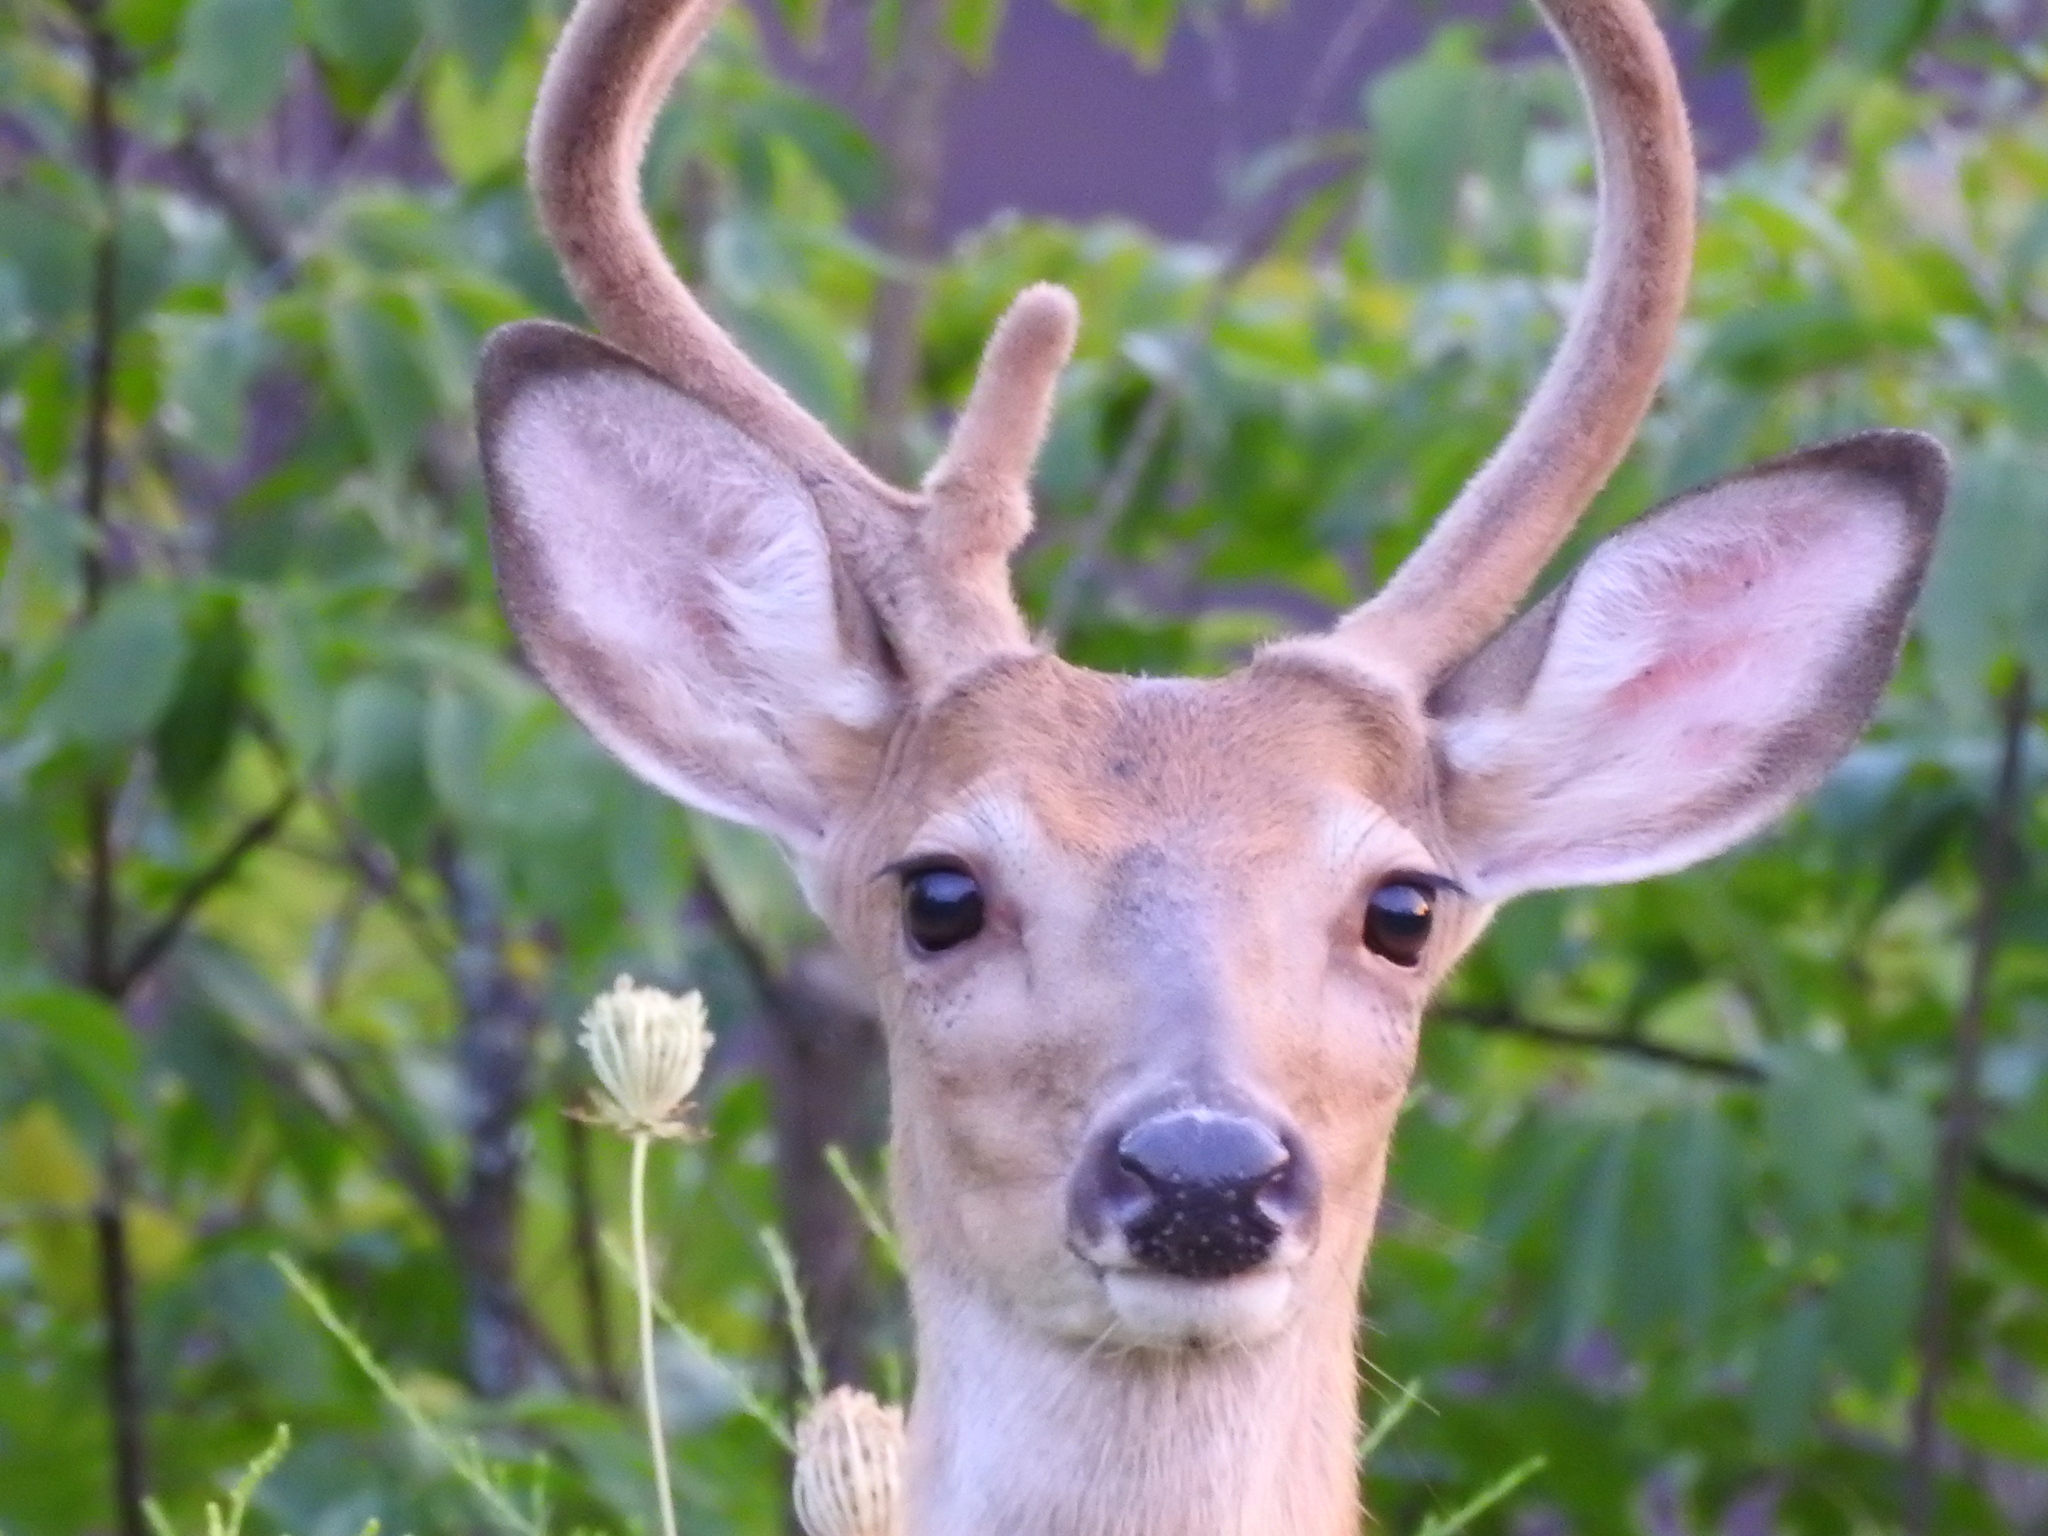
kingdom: Animalia
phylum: Chordata
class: Mammalia
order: Artiodactyla
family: Cervidae
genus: Odocoileus
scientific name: Odocoileus virginianus
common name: White-tailed deer
